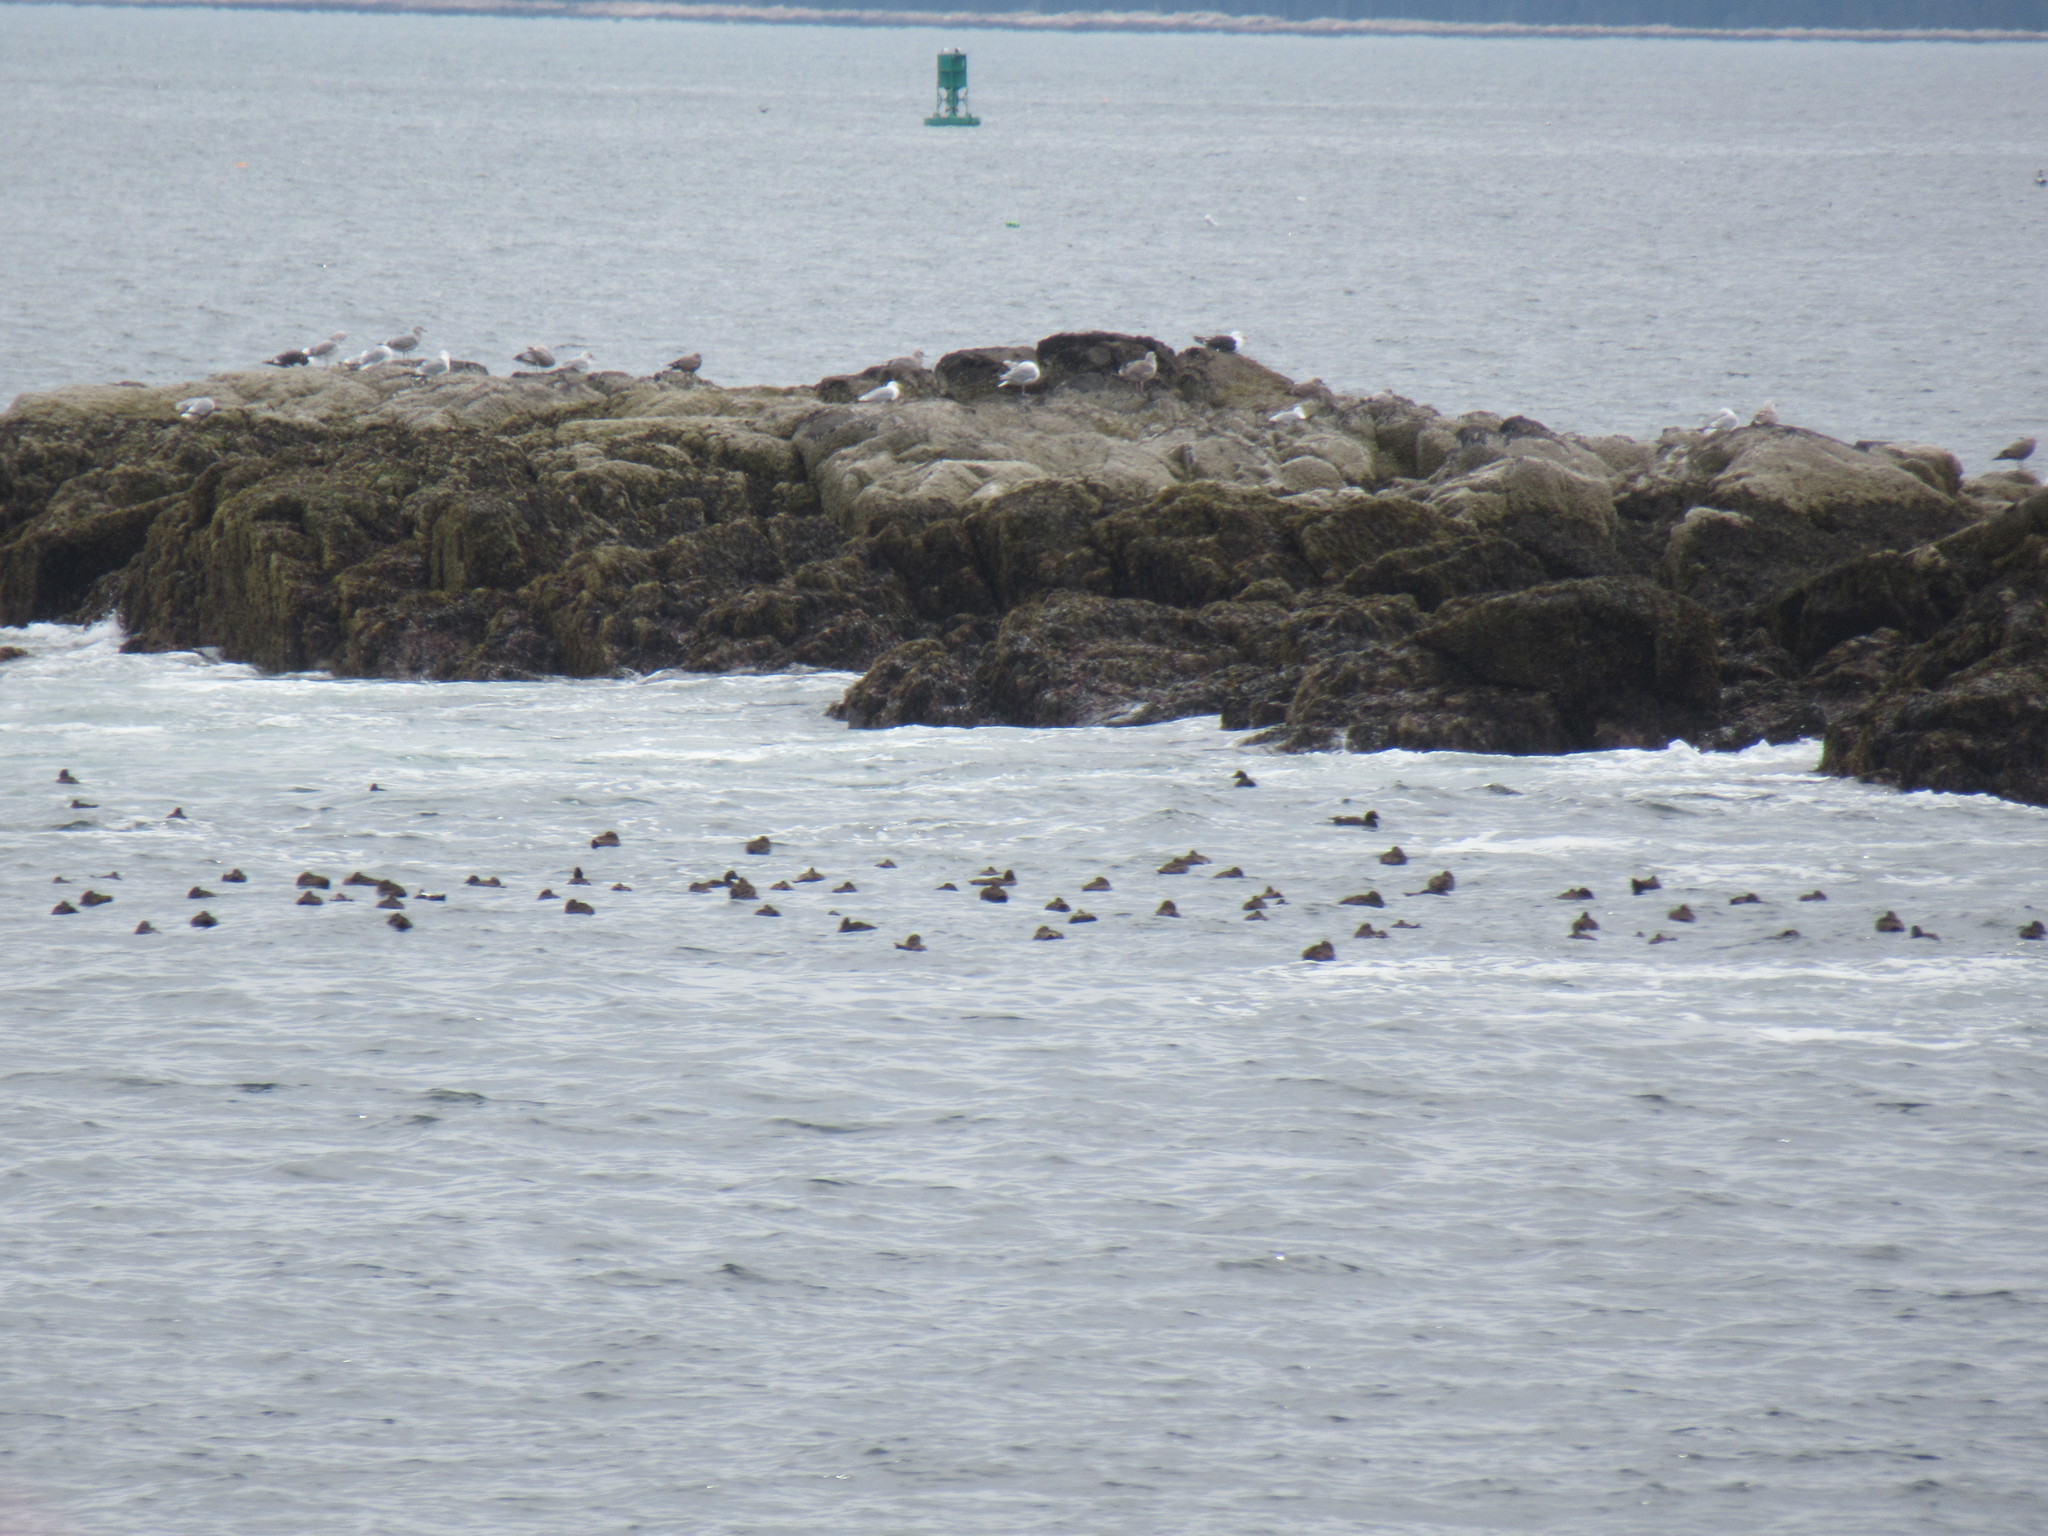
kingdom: Animalia
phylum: Chordata
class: Aves
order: Anseriformes
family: Anatidae
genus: Somateria
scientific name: Somateria mollissima
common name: Common eider
